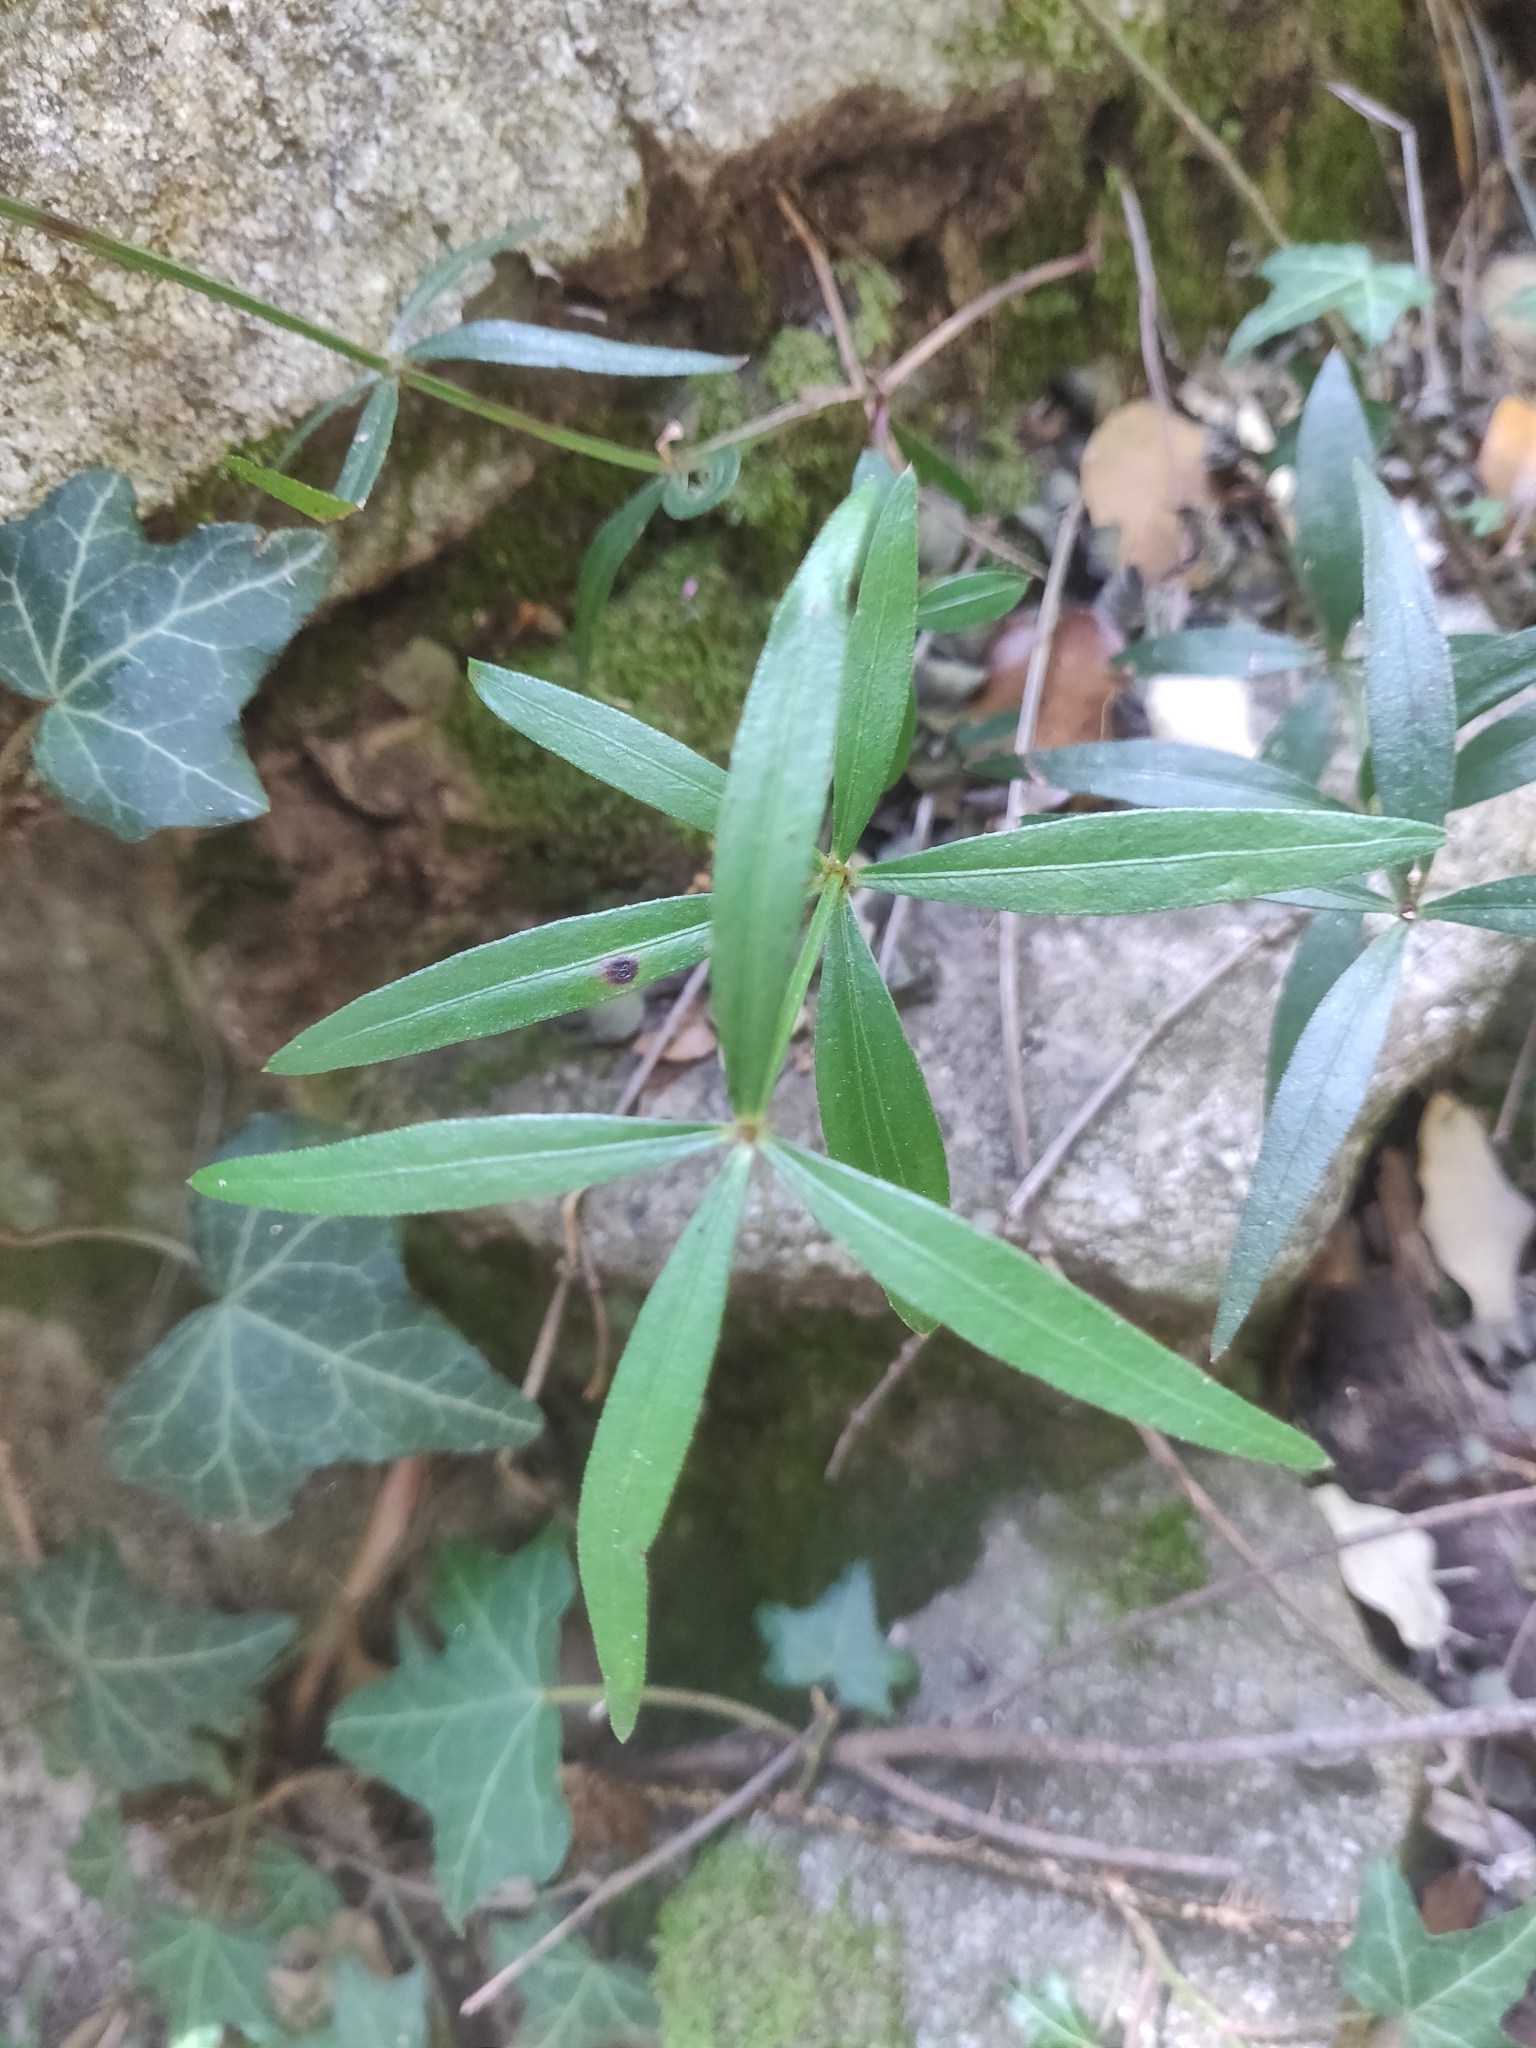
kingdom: Plantae
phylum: Tracheophyta
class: Magnoliopsida
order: Gentianales
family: Rubiaceae
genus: Rubia
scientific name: Rubia peregrina
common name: Wild madder
